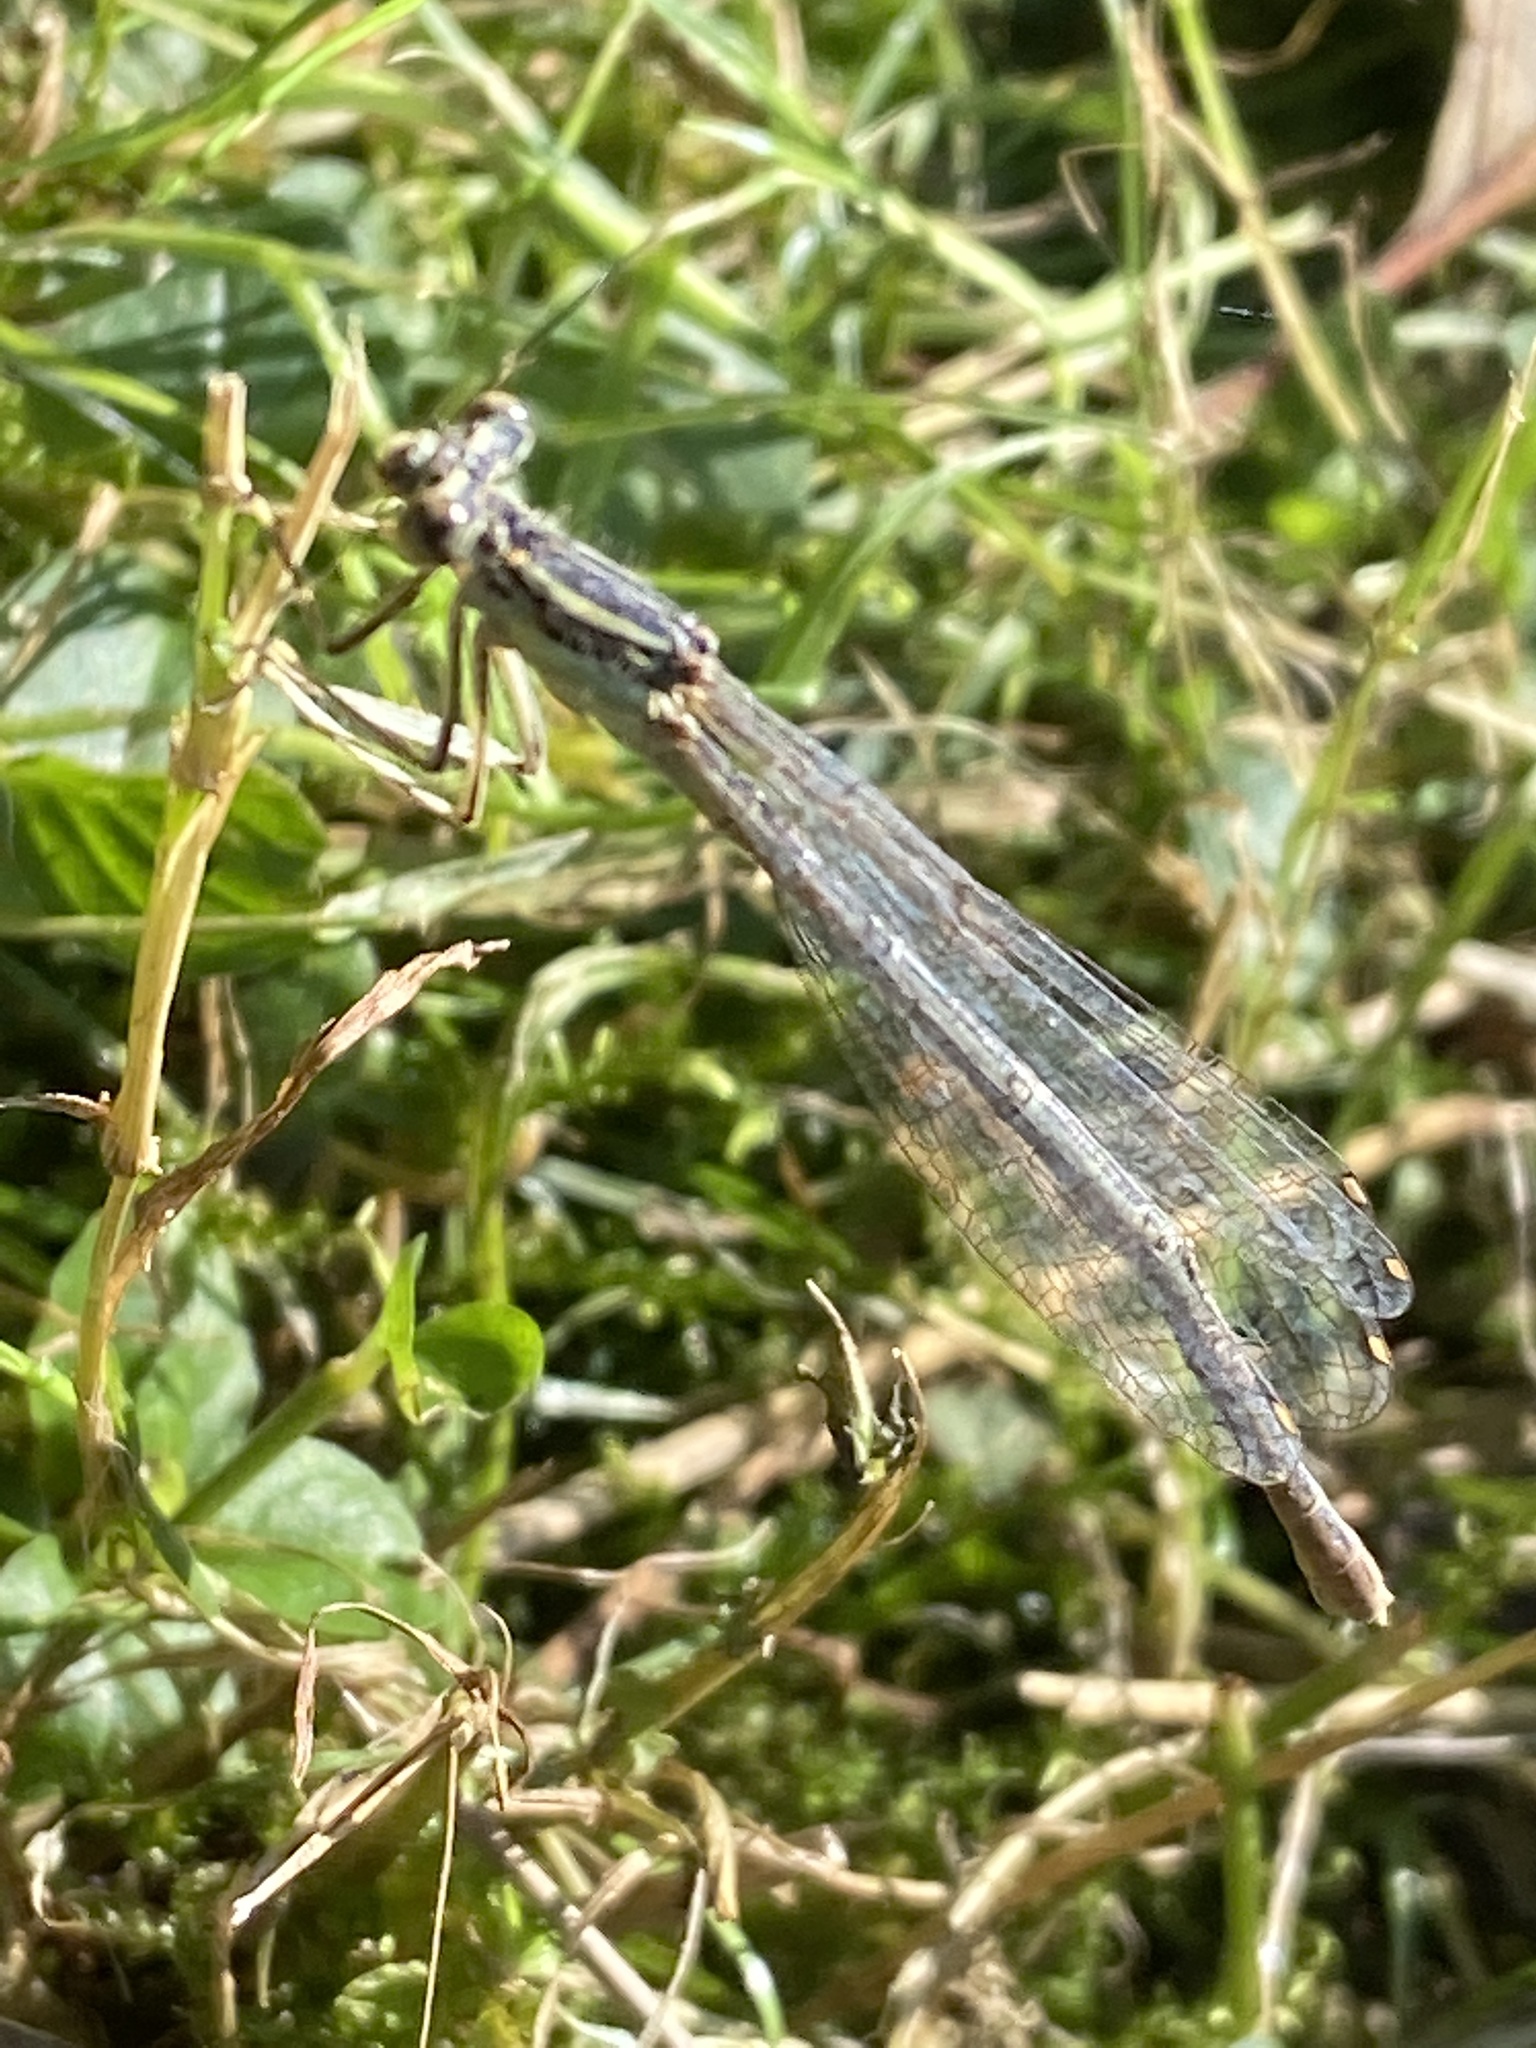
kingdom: Animalia
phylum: Arthropoda
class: Insecta
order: Odonata
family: Platycnemididae
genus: Platycnemis
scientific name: Platycnemis pennipes
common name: White-legged damselfly
